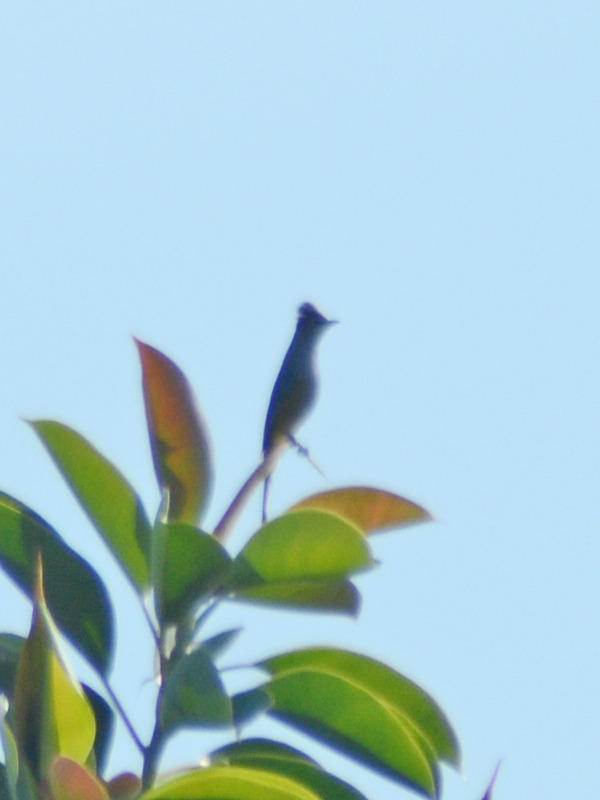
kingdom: Animalia
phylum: Chordata
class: Aves
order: Passeriformes
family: Ptilogonatidae
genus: Ptilogonys
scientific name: Ptilogonys cinereus
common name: Gray silky-flycatcher
